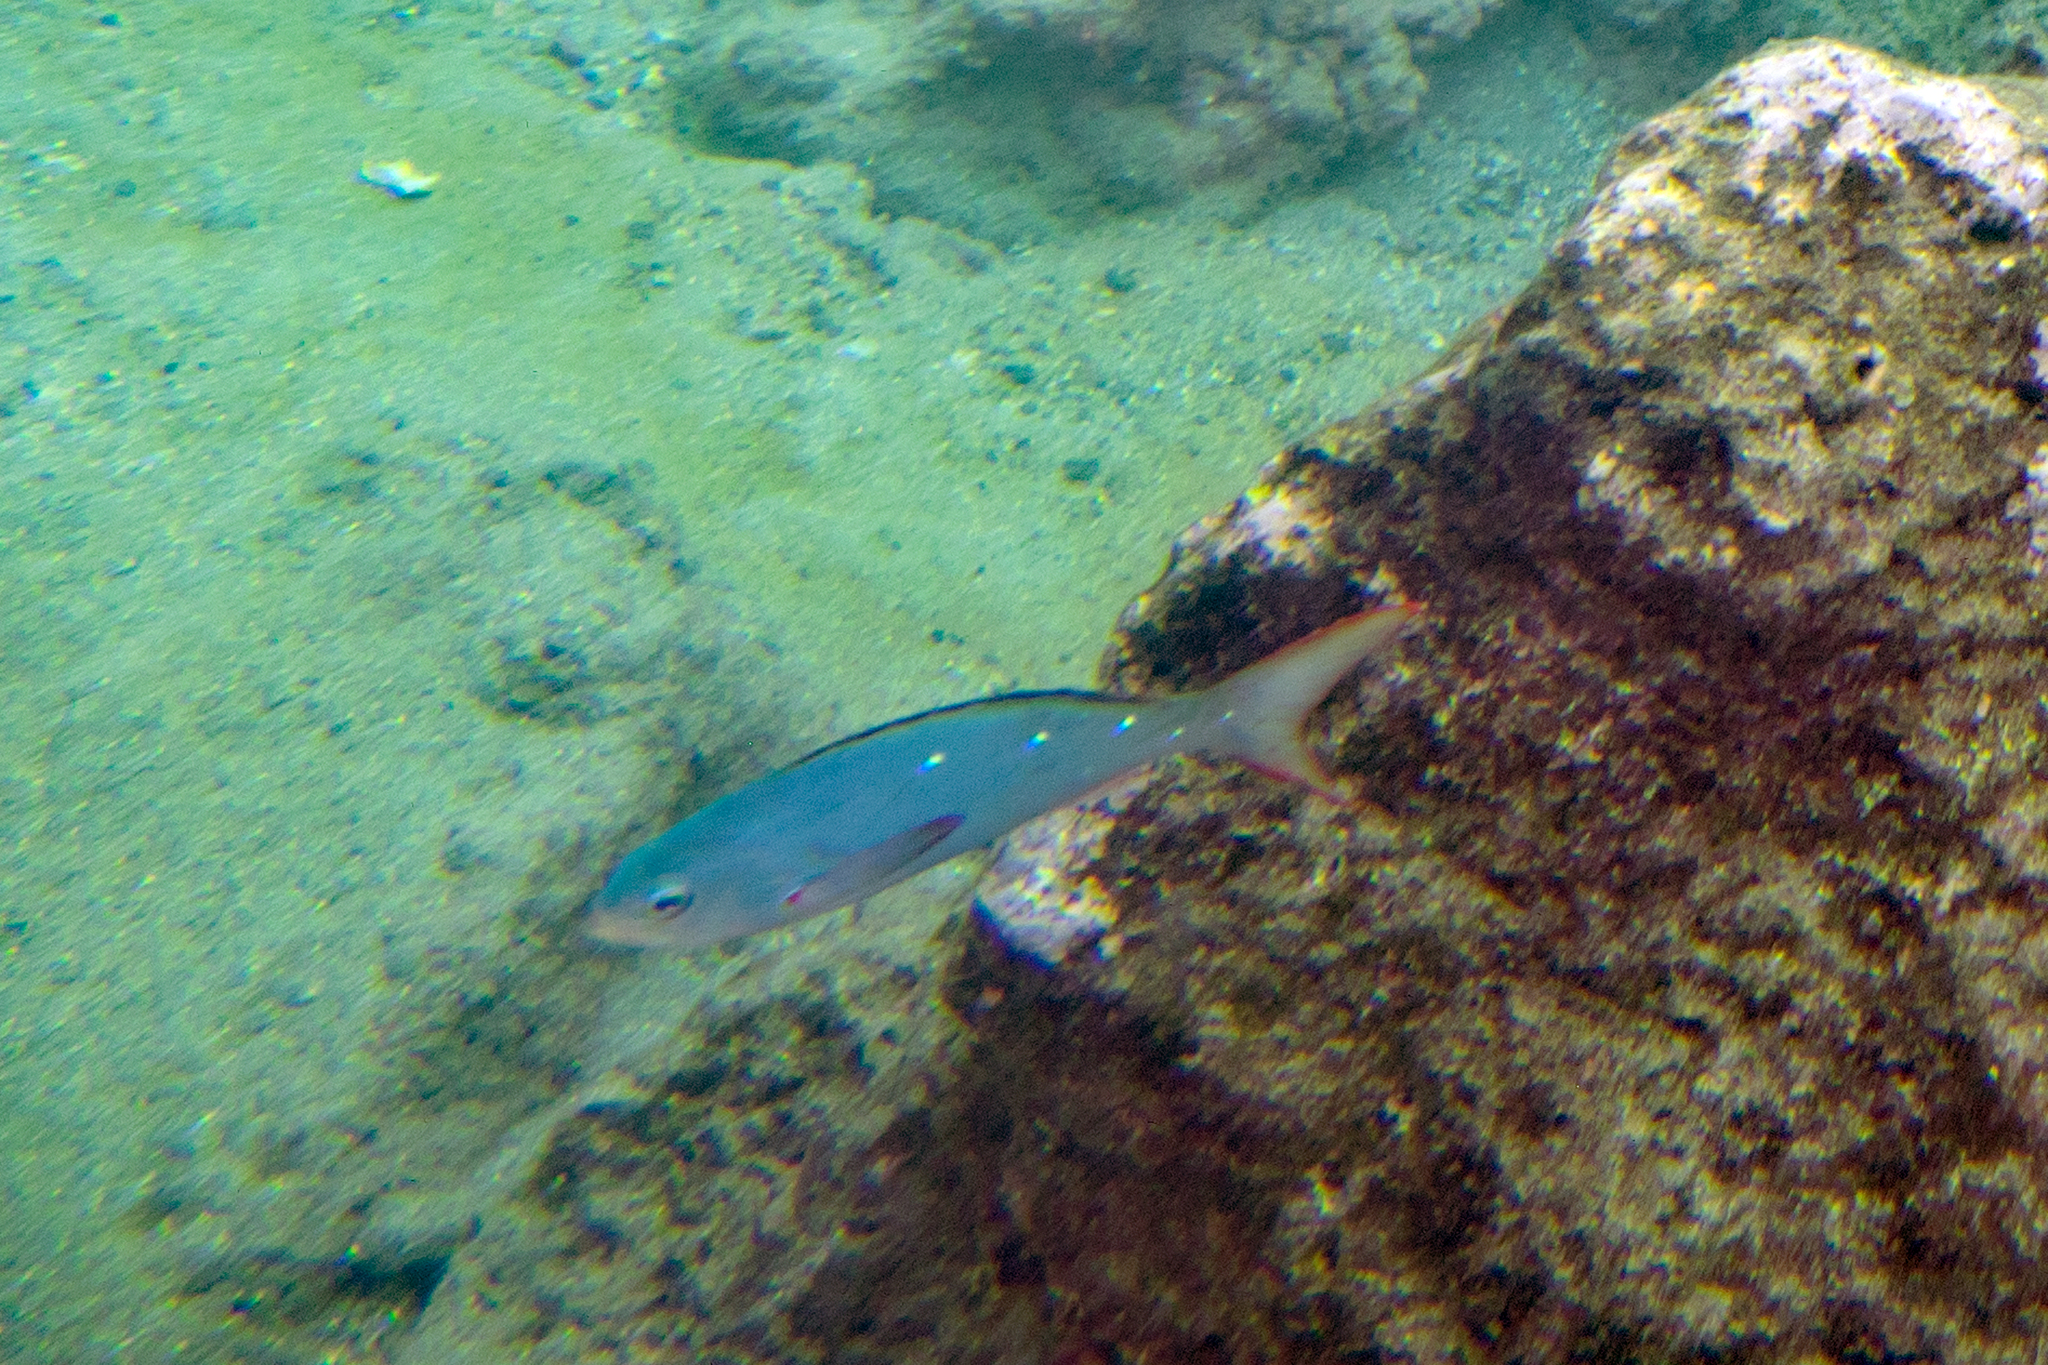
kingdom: Animalia
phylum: Chordata
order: Perciformes
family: Serranidae
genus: Paranthias
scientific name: Paranthias colonus
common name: Pacific creole-fish
